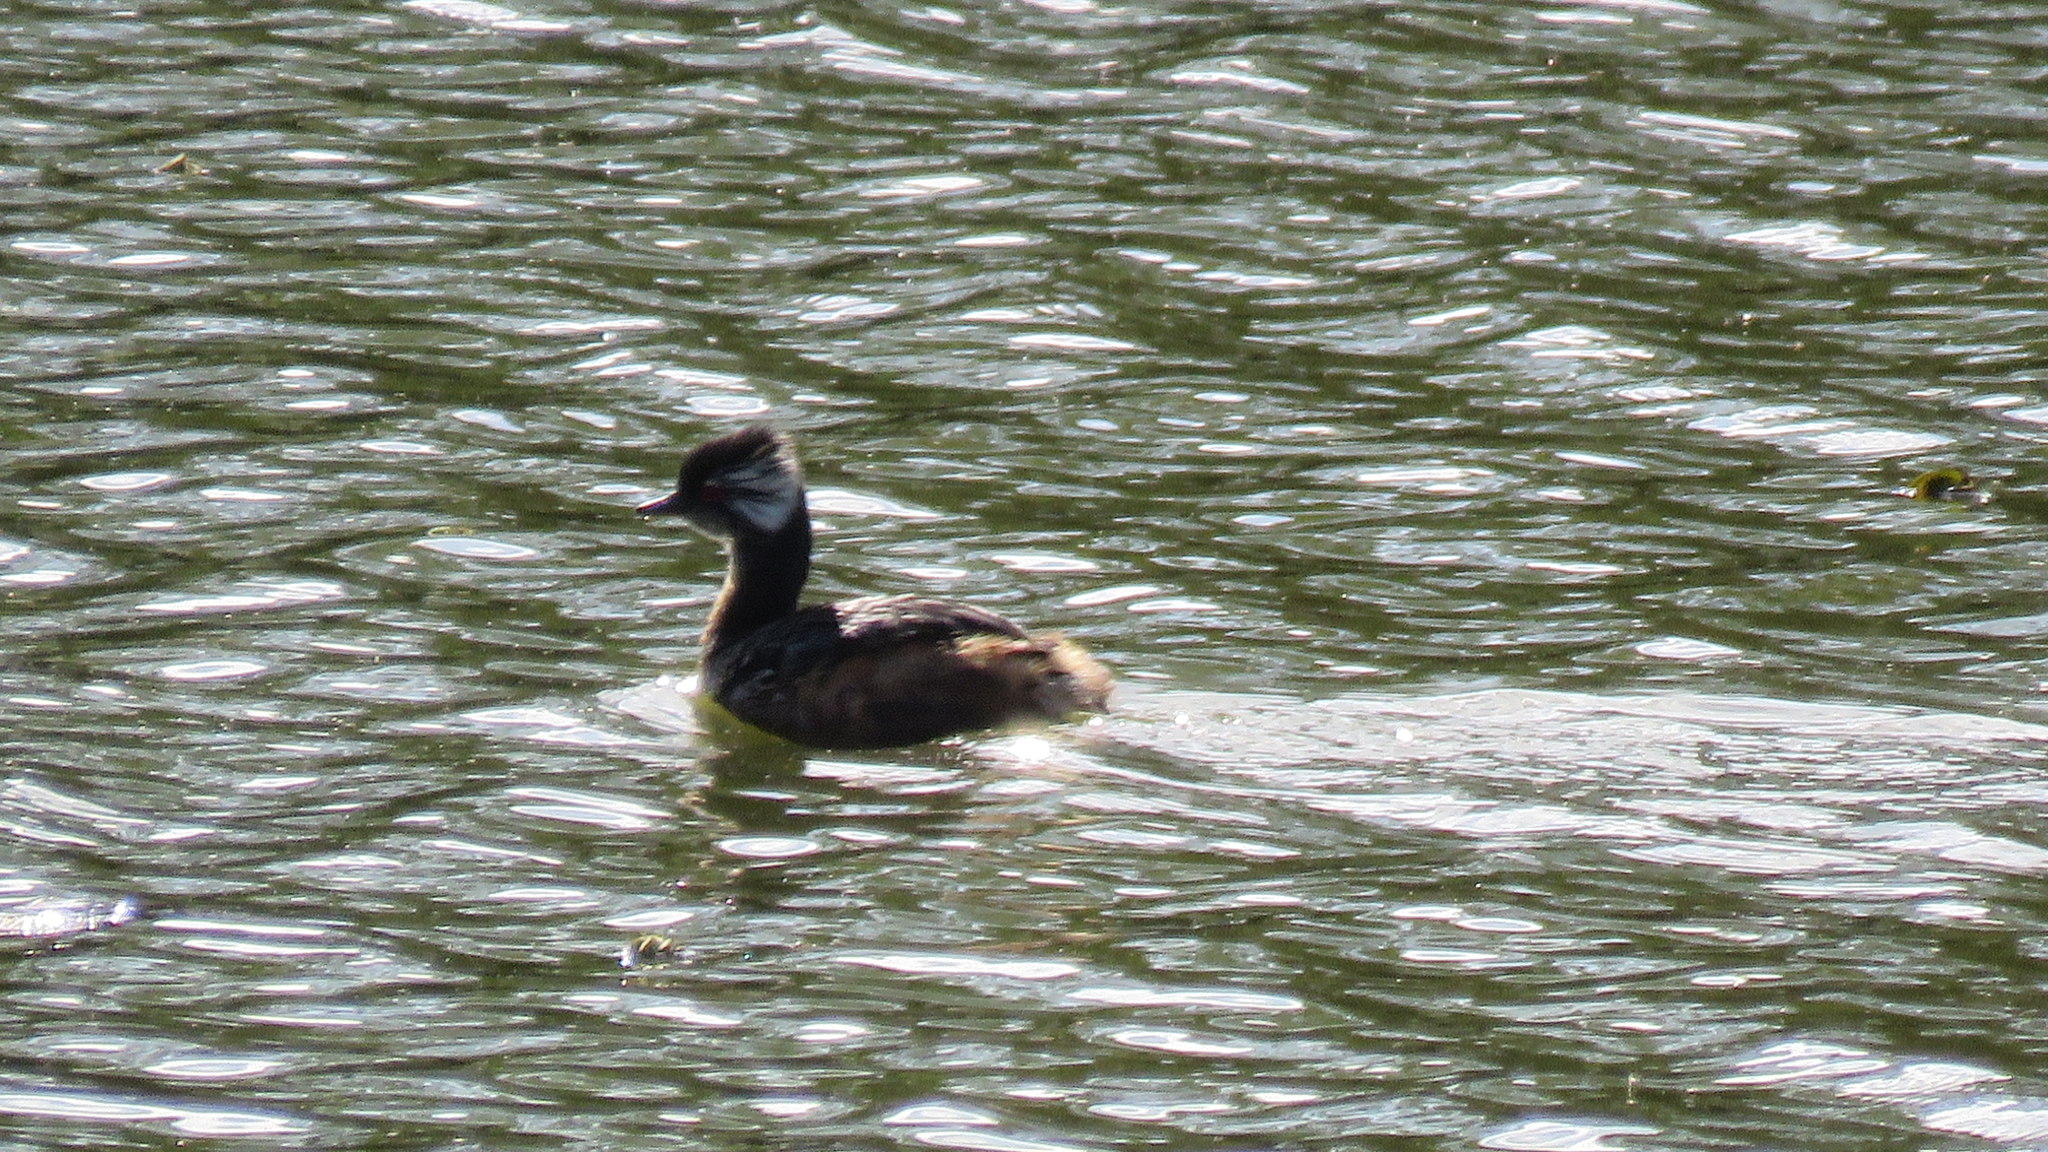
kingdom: Animalia
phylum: Chordata
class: Aves
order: Podicipediformes
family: Podicipedidae
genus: Rollandia
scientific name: Rollandia rolland
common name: White-tufted grebe
